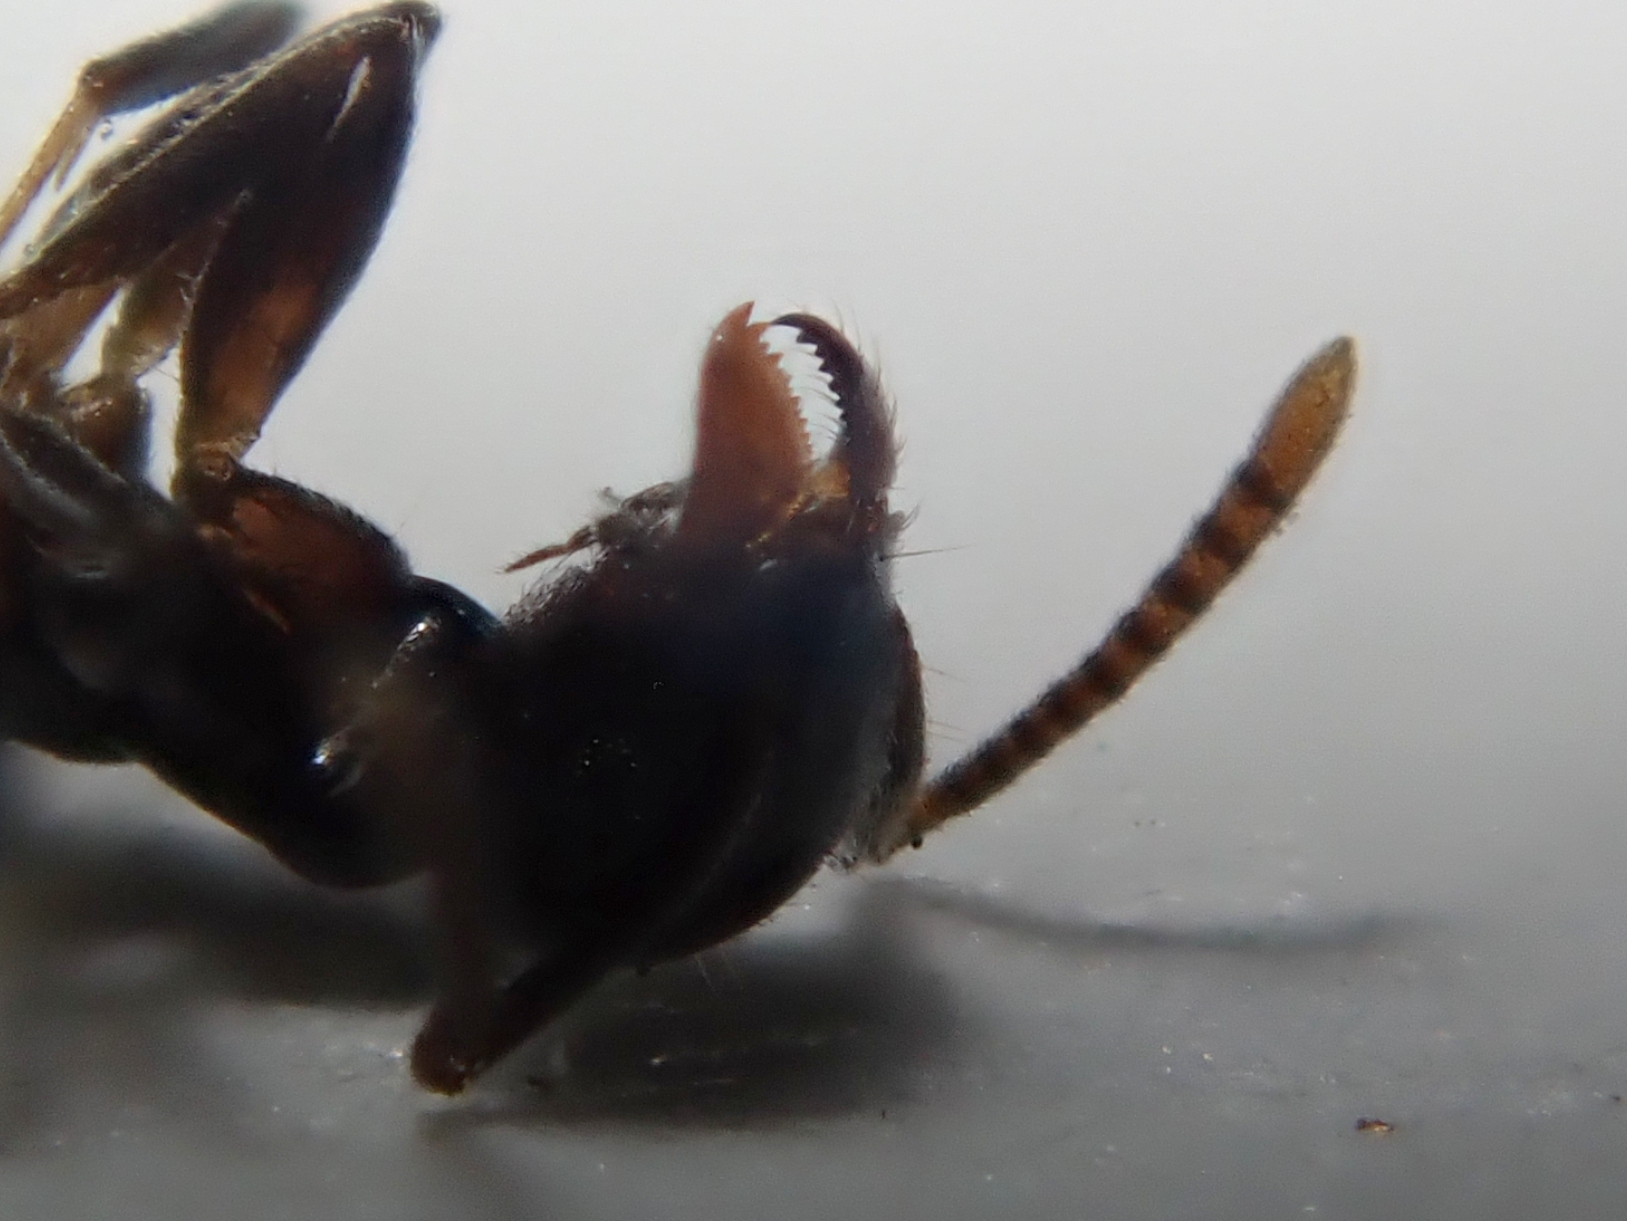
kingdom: Animalia
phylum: Arthropoda
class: Insecta
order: Hymenoptera
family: Formicidae
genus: Technomyrmex
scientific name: Technomyrmex jocosus
